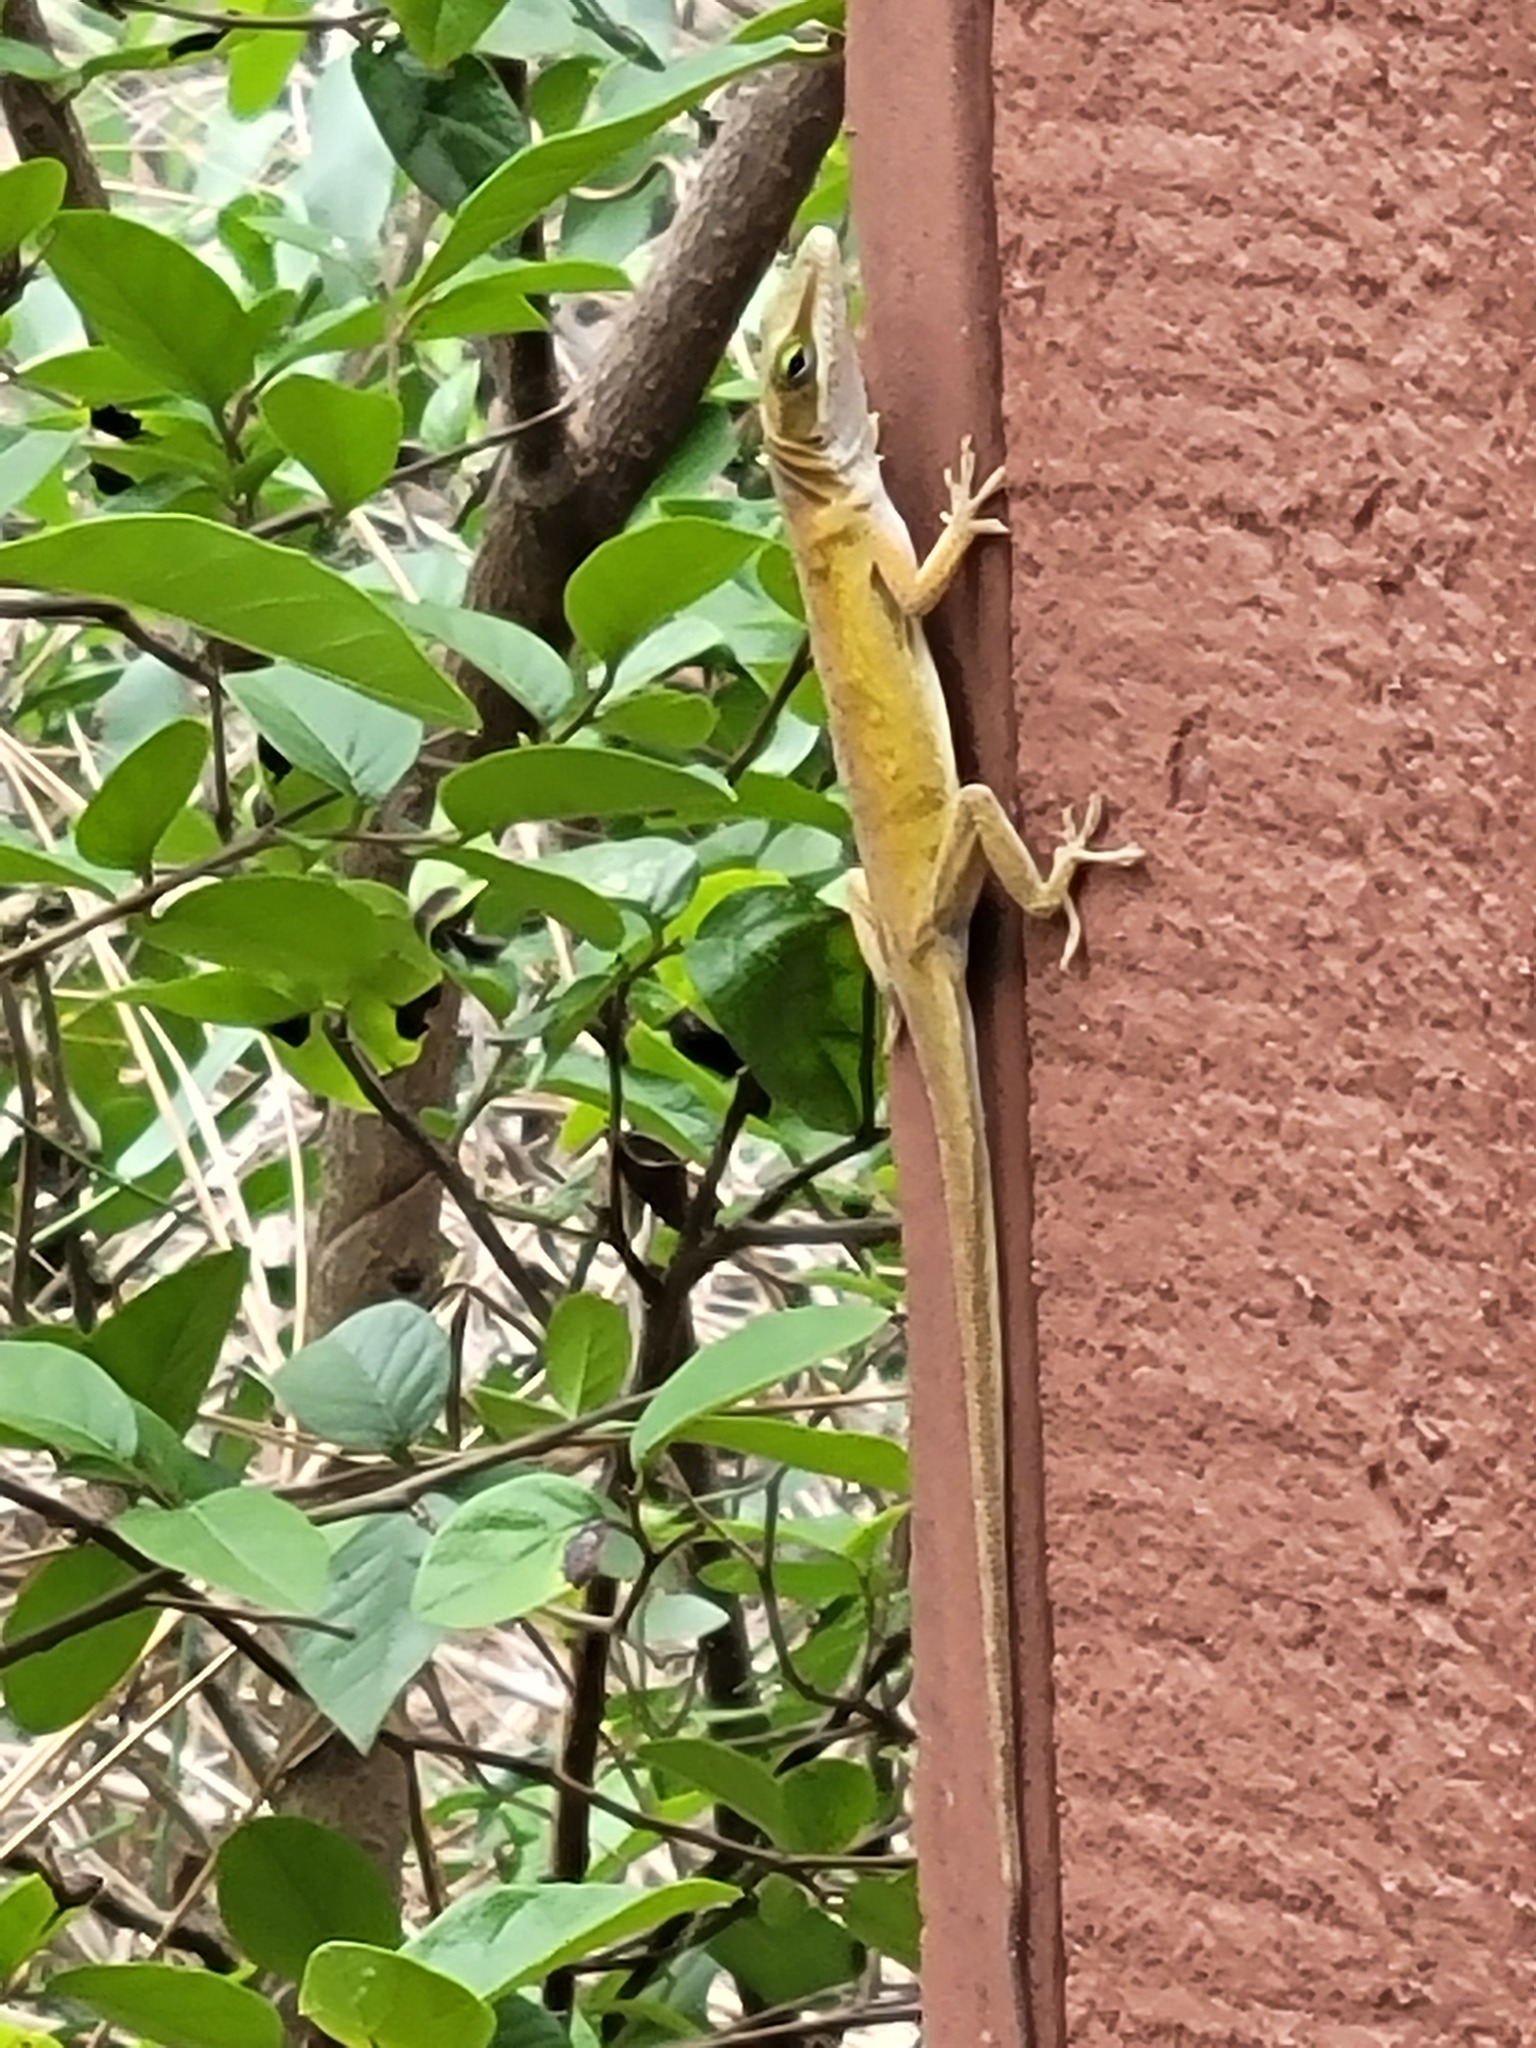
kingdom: Animalia
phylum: Chordata
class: Squamata
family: Dactyloidae
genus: Anolis
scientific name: Anolis carolinensis
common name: Green anole
